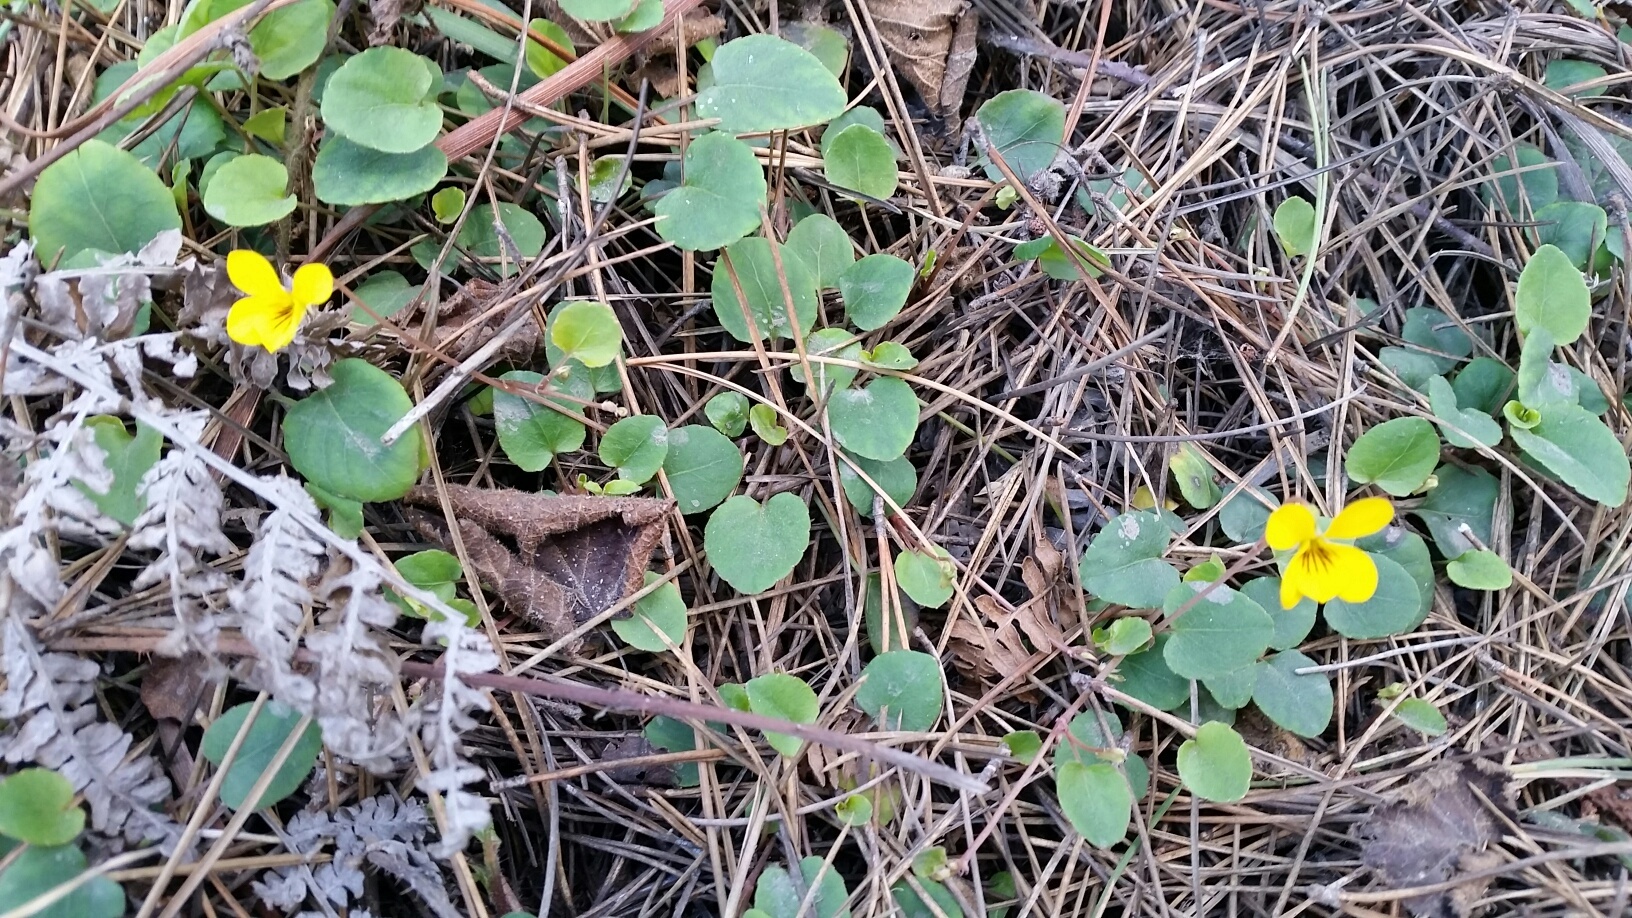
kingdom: Plantae
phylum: Tracheophyta
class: Magnoliopsida
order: Malpighiales
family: Violaceae
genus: Viola
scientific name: Viola sempervirens
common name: Evergreen violet
